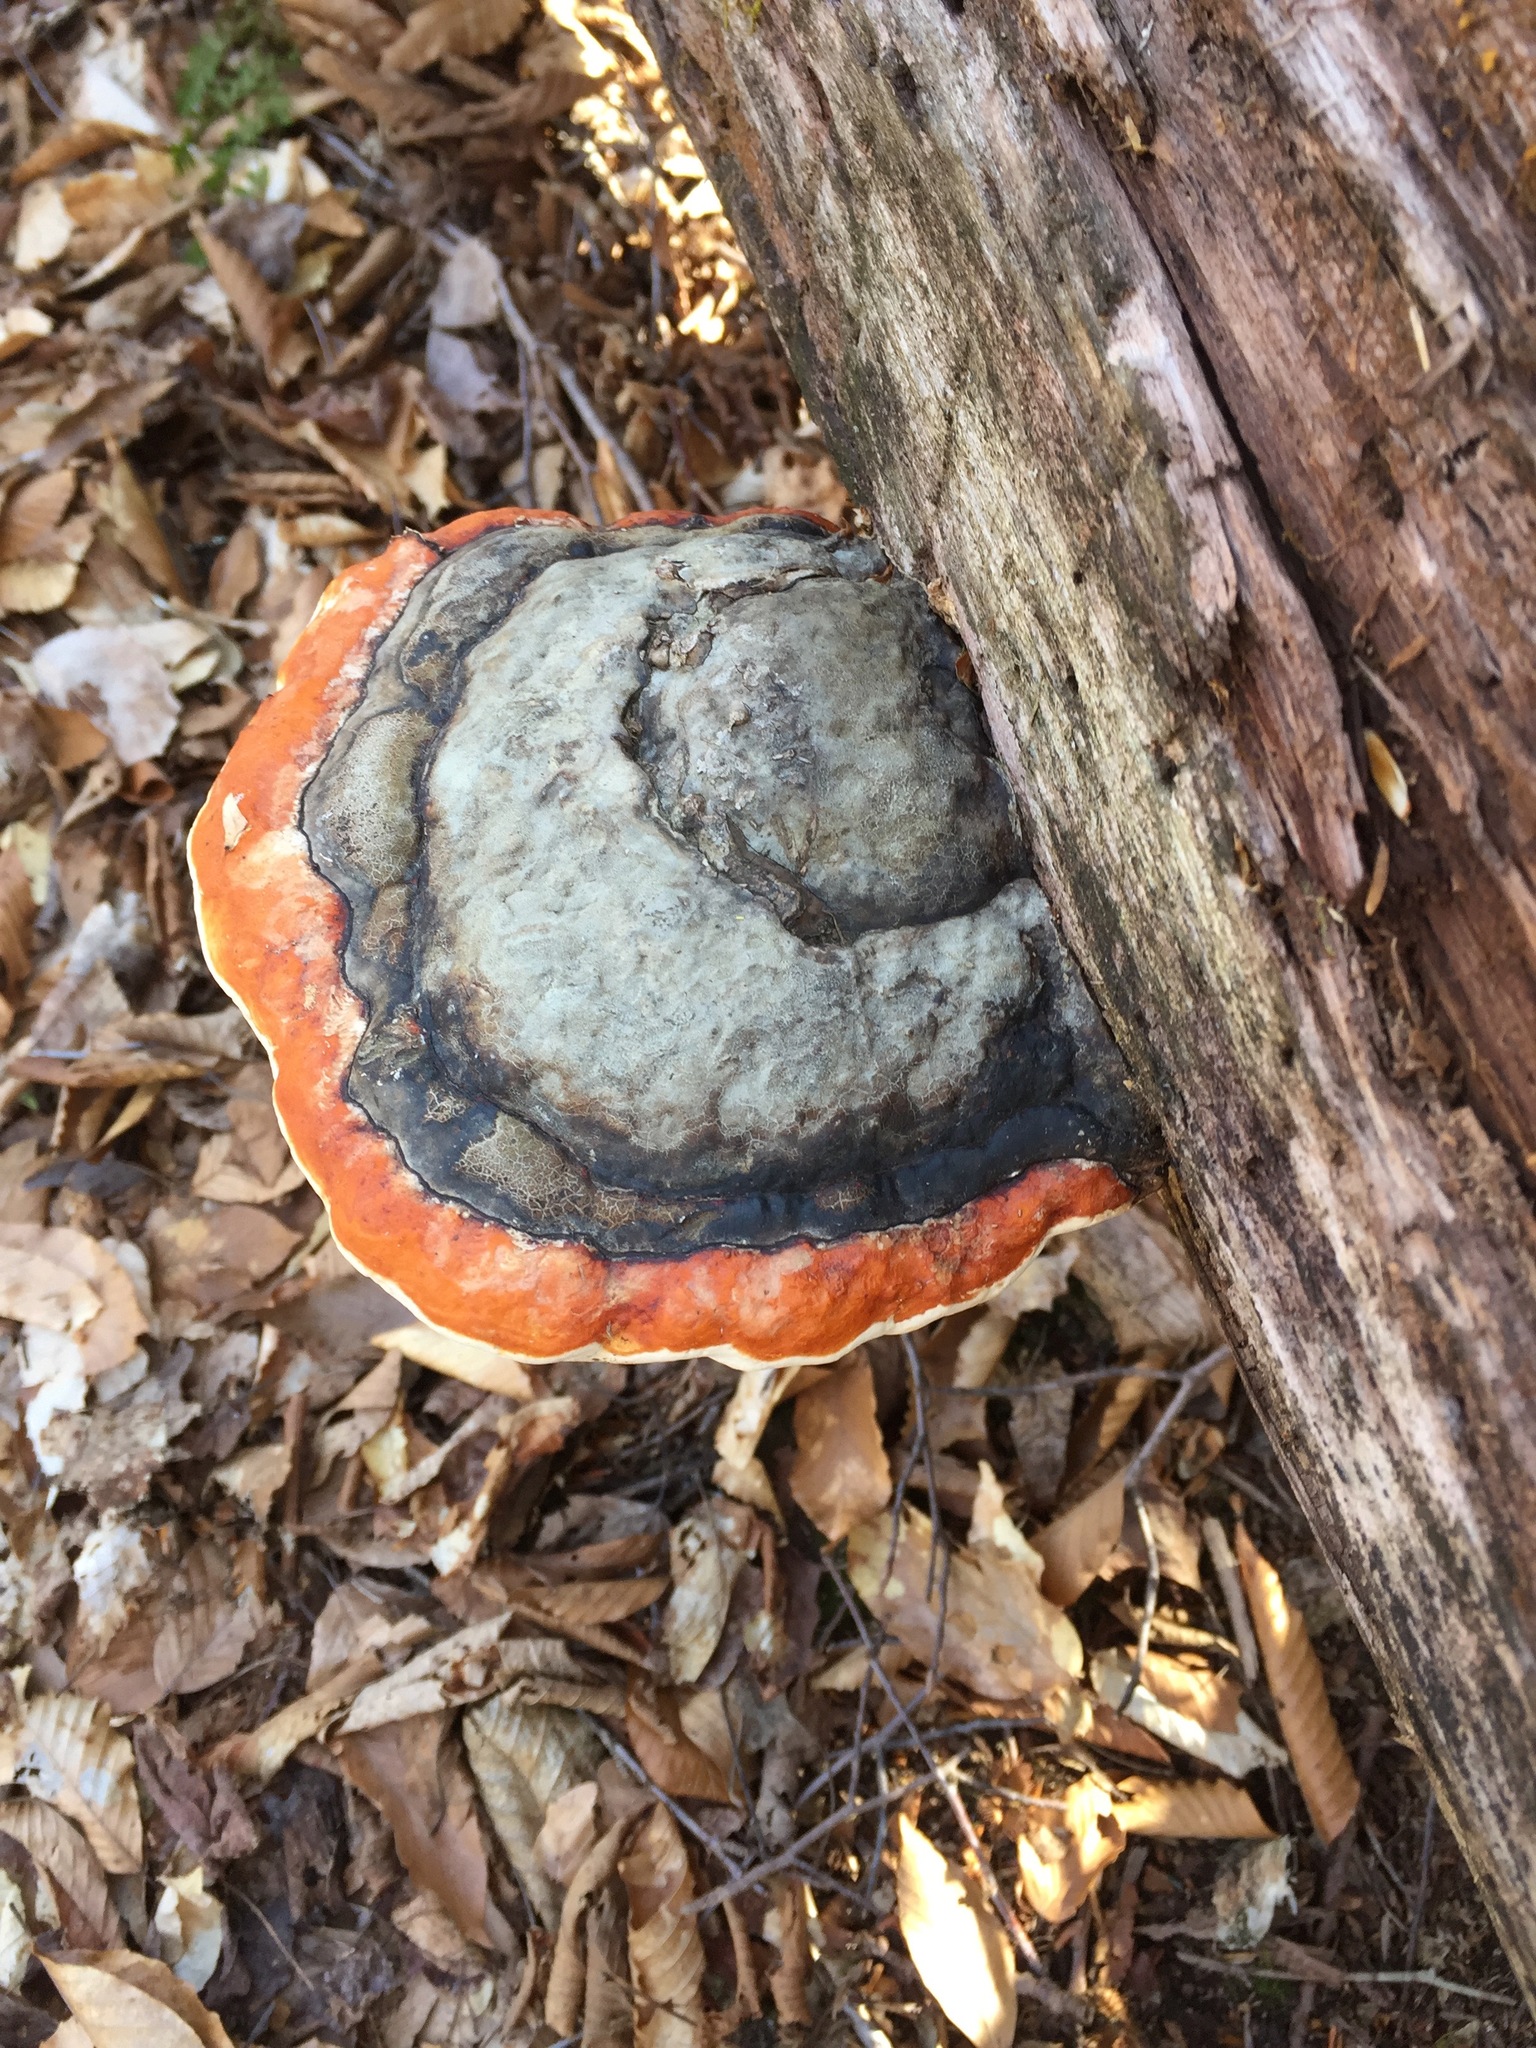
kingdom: Fungi
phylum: Basidiomycota
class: Agaricomycetes
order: Polyporales
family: Fomitopsidaceae
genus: Fomitopsis
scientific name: Fomitopsis mounceae
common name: Northern red belt
